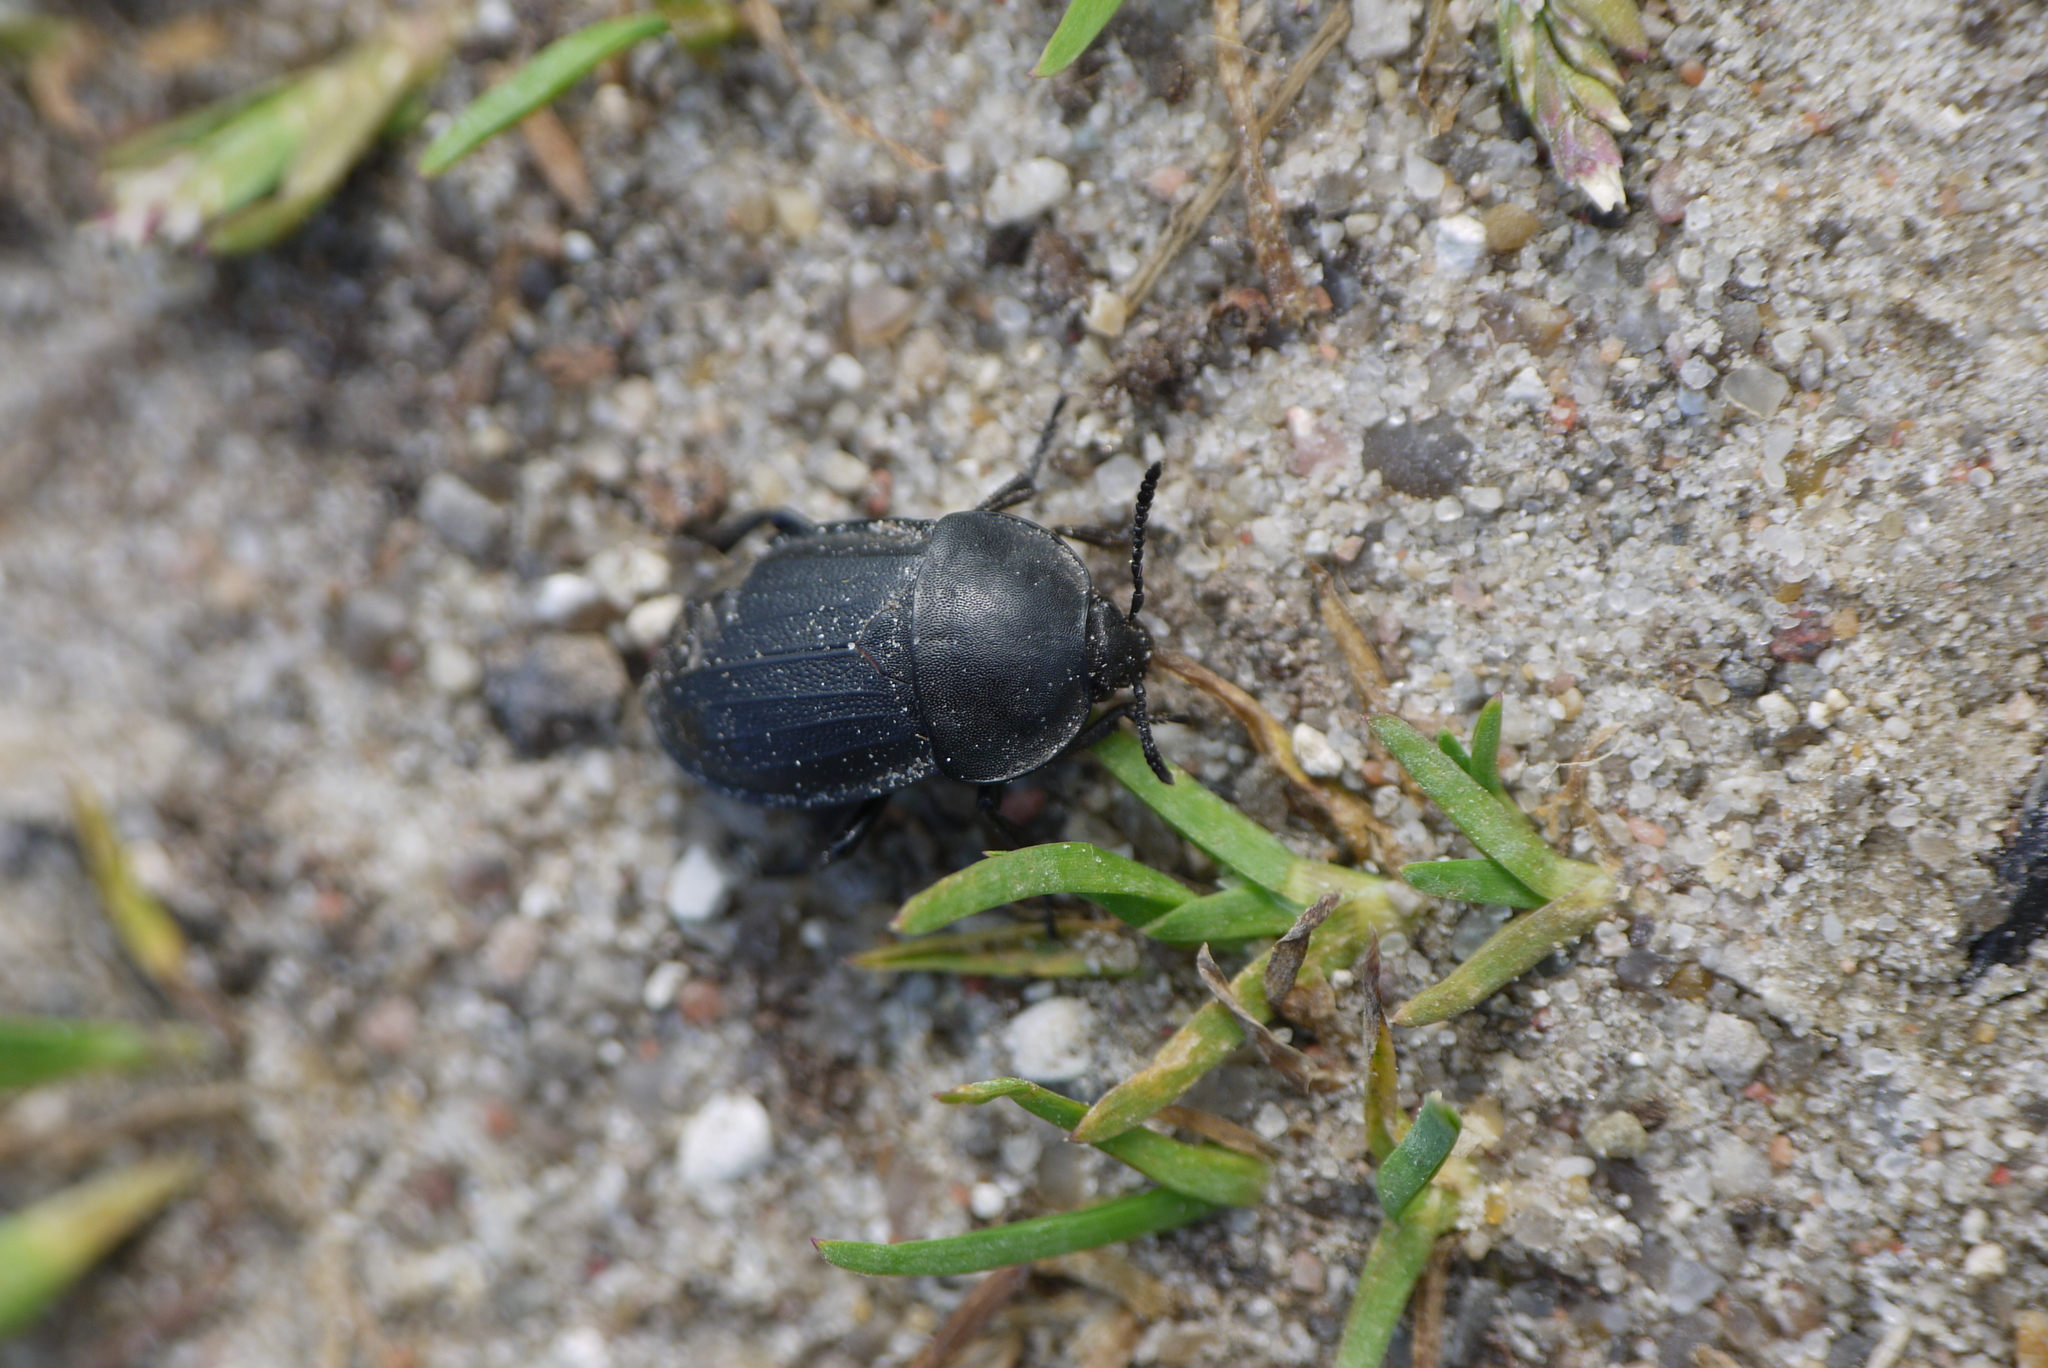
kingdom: Animalia
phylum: Arthropoda
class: Insecta
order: Coleoptera
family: Staphylinidae
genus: Silpha
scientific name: Silpha obscura
